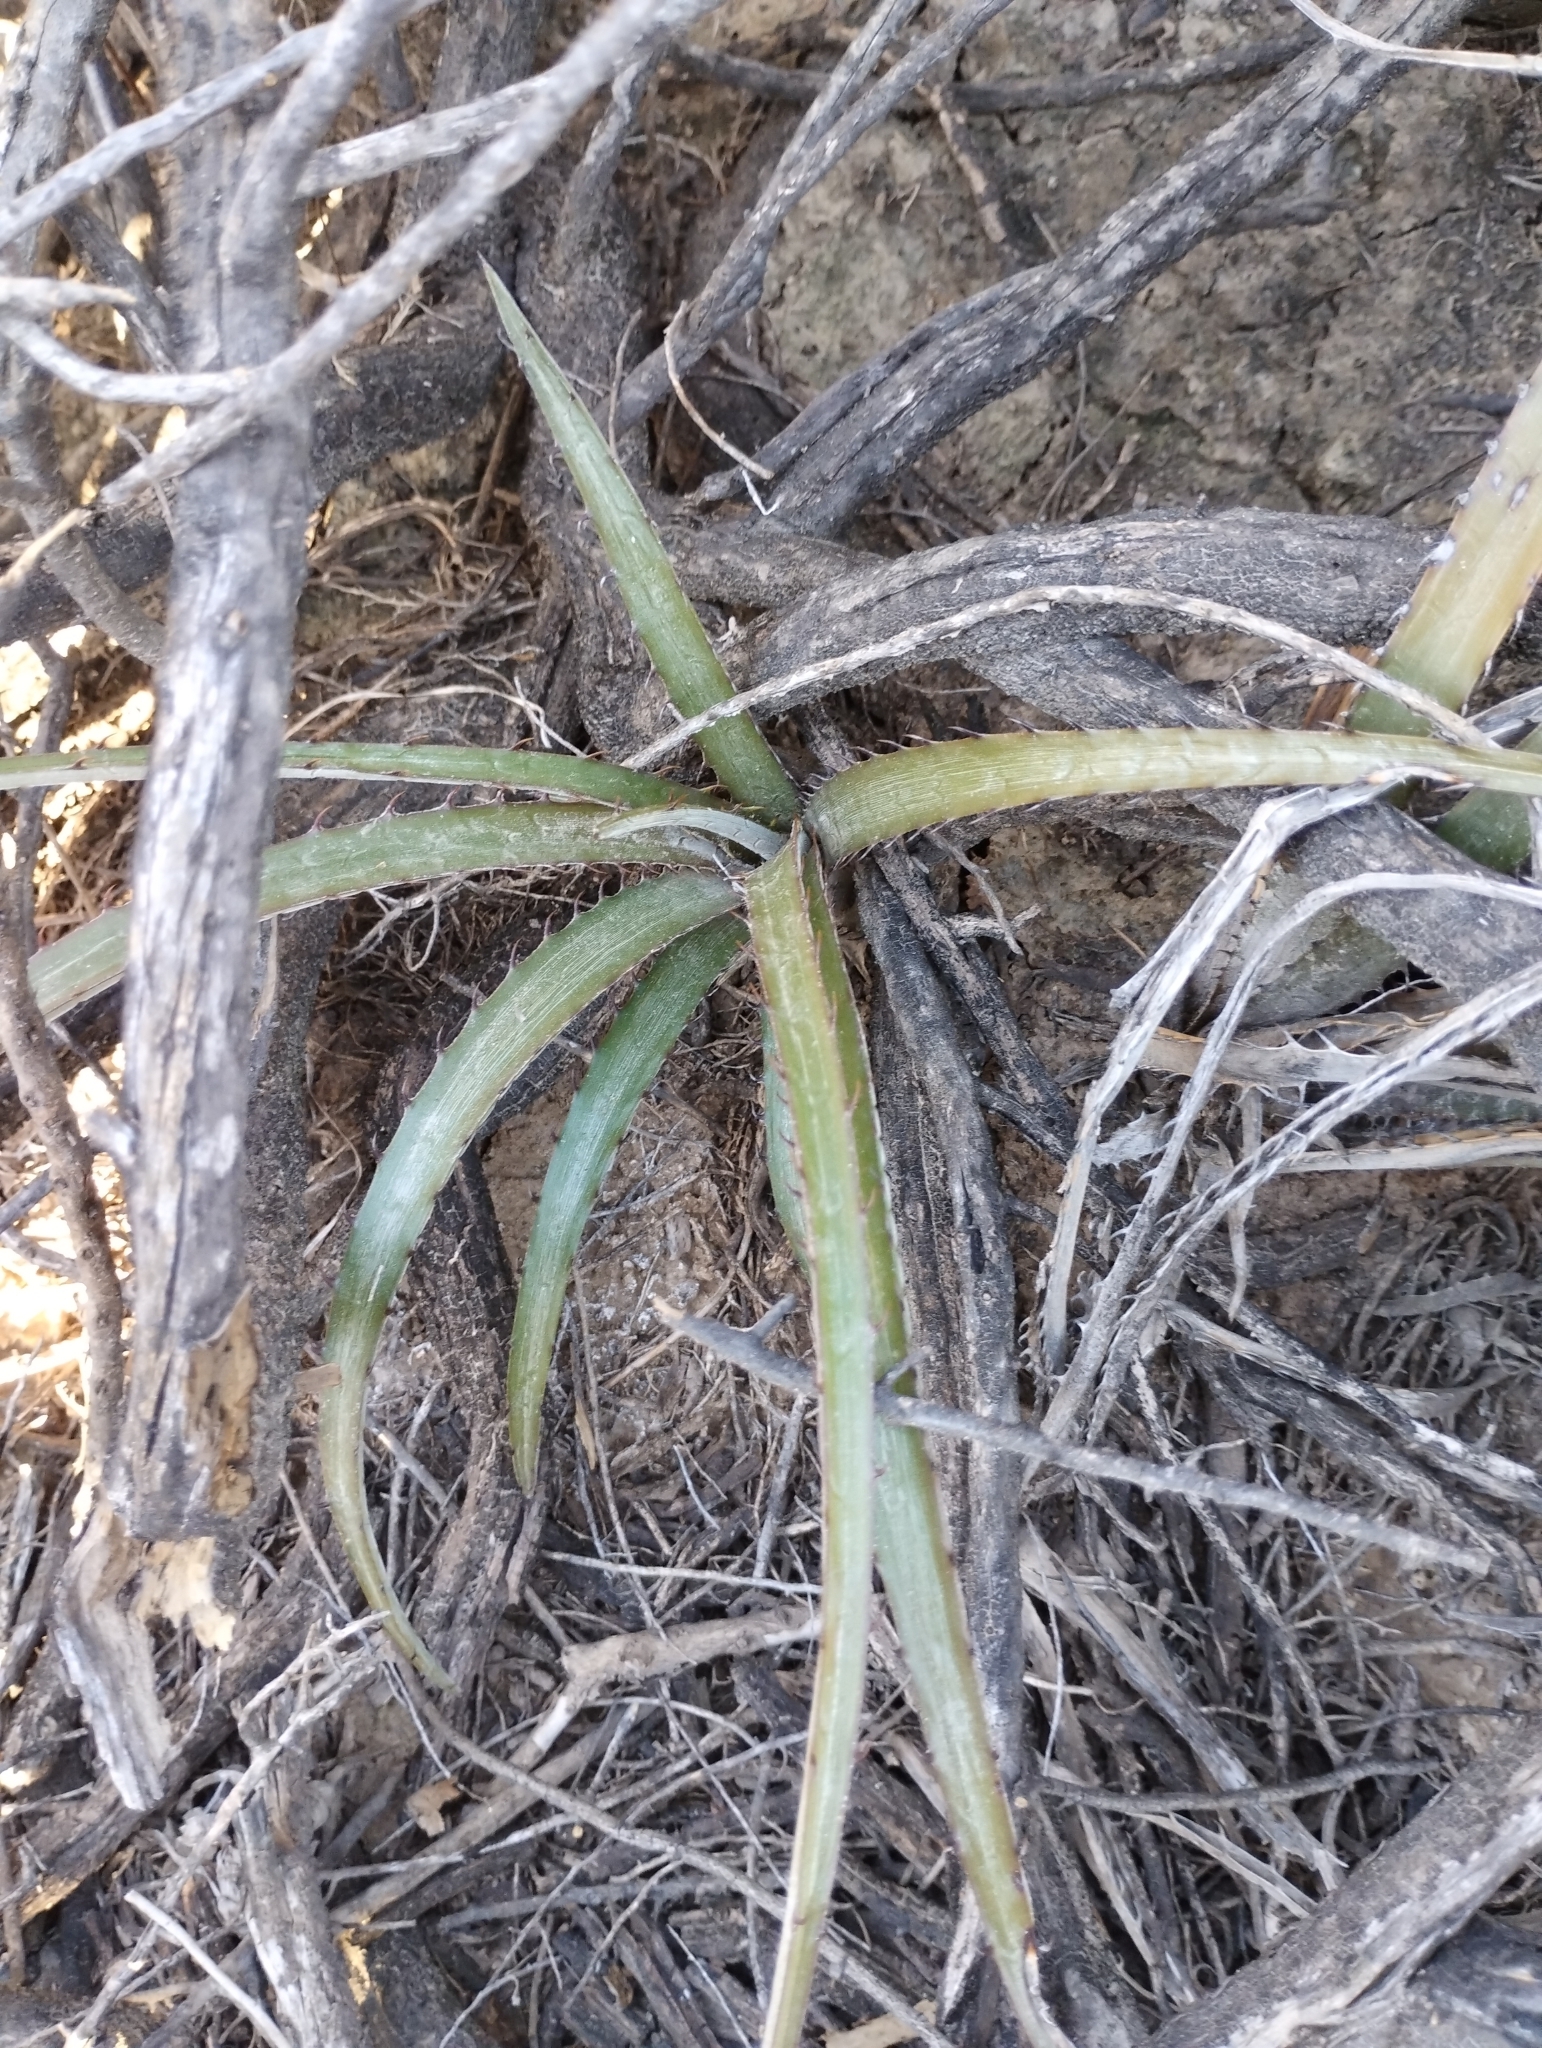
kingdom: Plantae
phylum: Tracheophyta
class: Liliopsida
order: Poales
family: Bromeliaceae
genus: Deinacanthon
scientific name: Deinacanthon urbanianum
